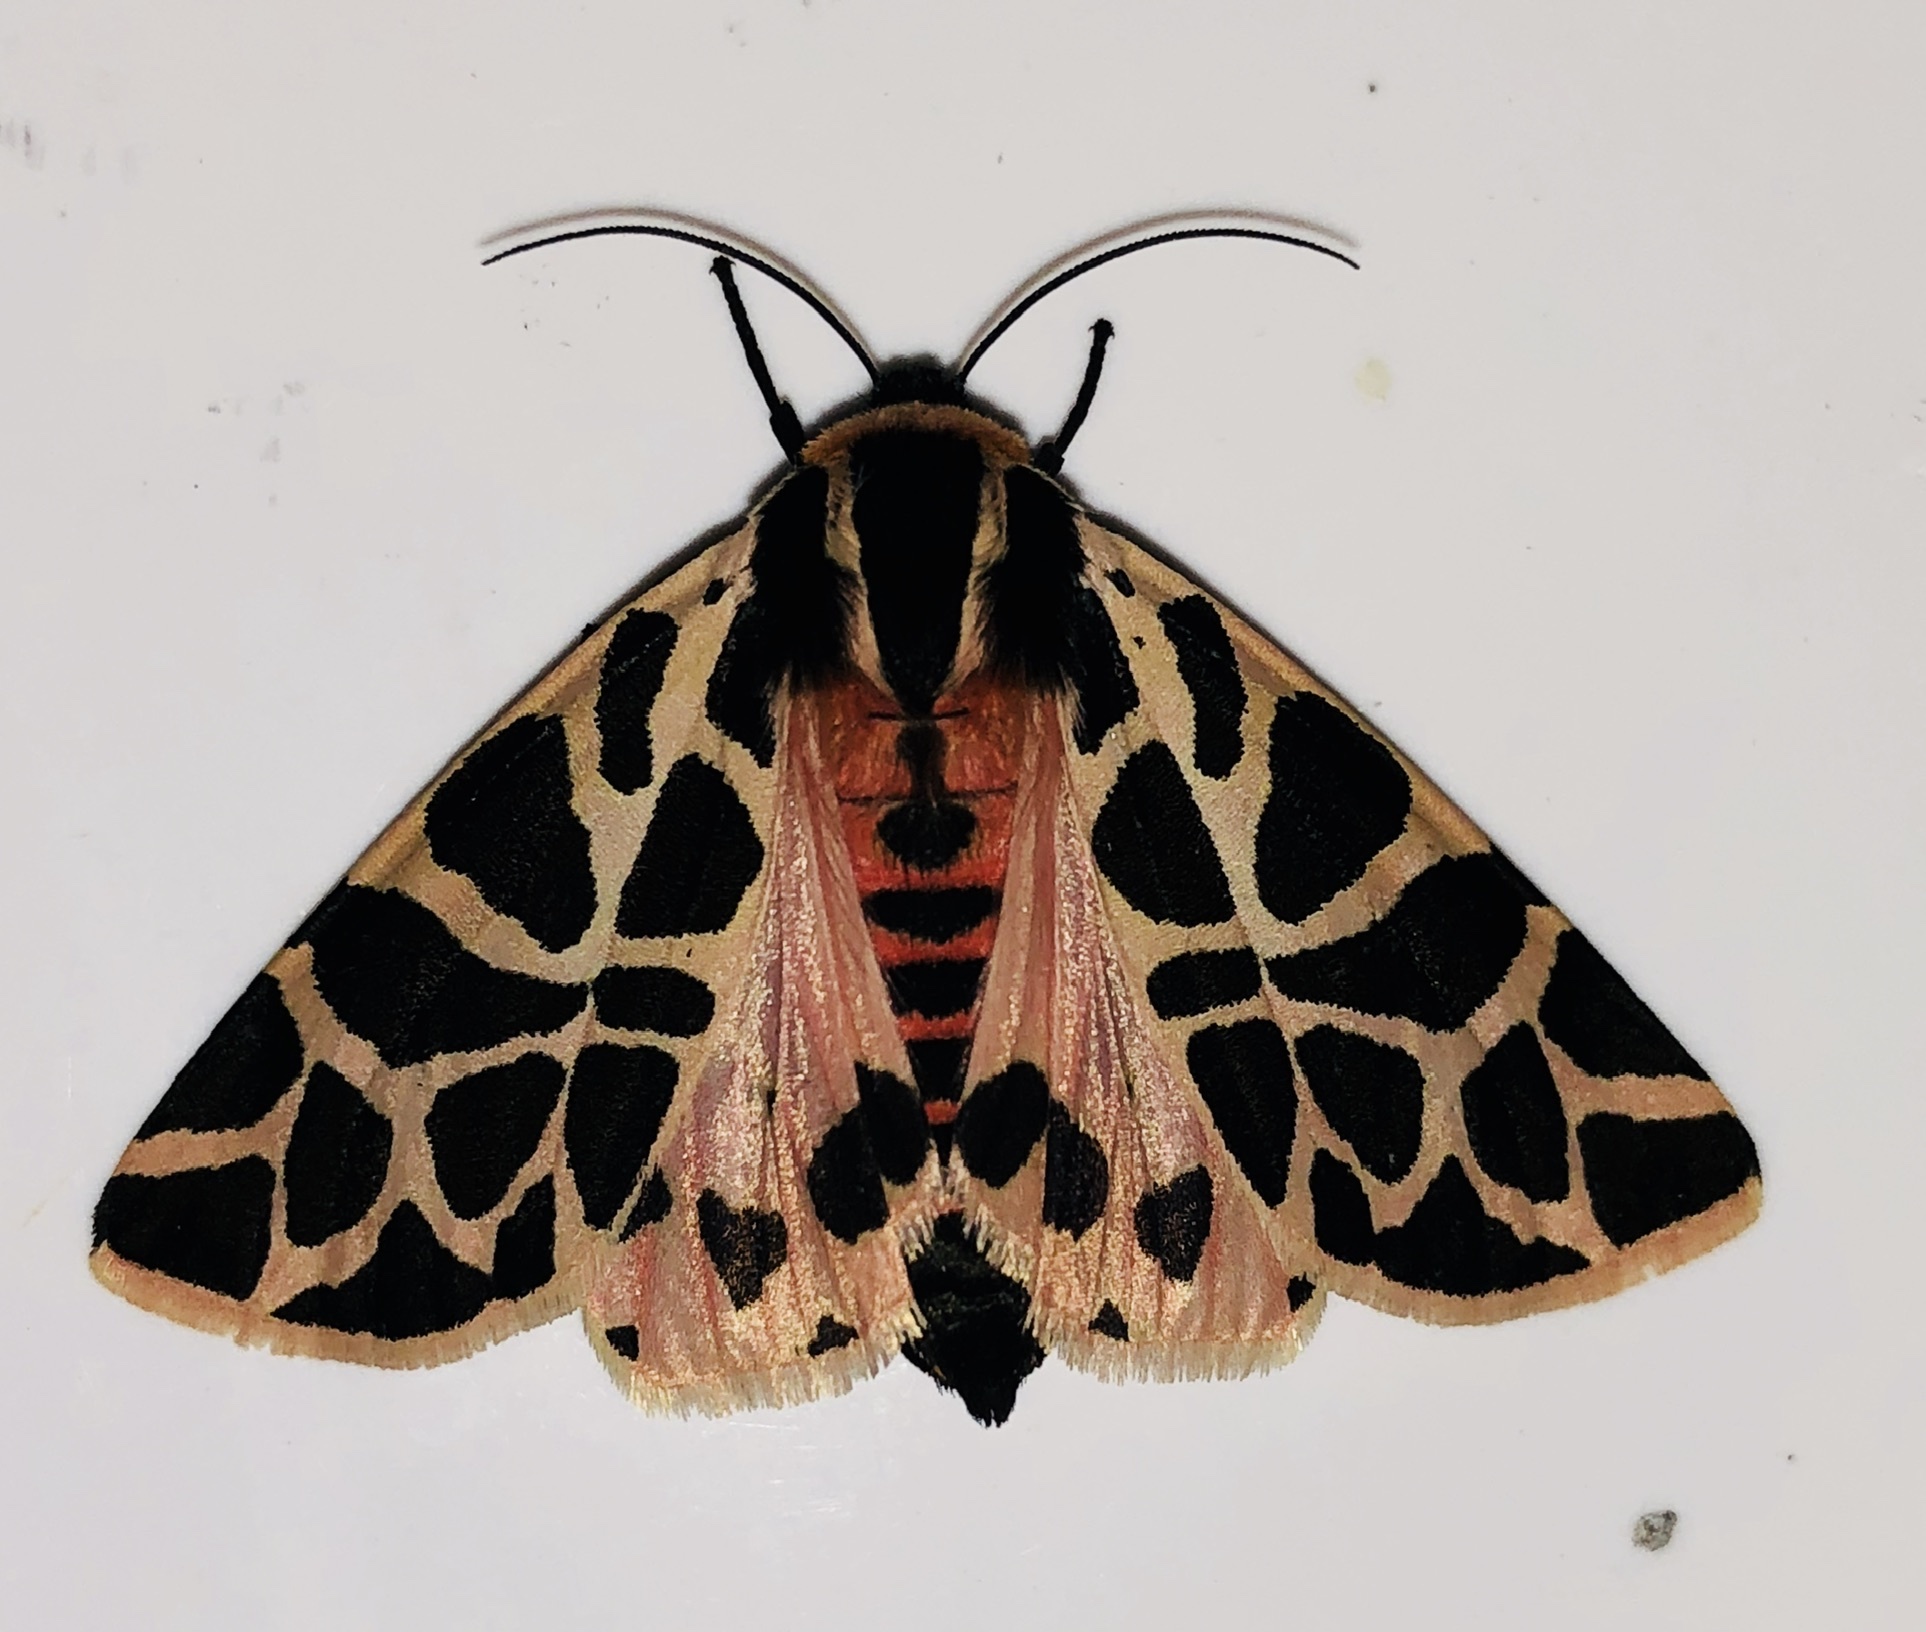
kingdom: Animalia
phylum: Arthropoda
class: Insecta
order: Lepidoptera
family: Erebidae
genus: Cymbalophora
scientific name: Cymbalophora pudica
